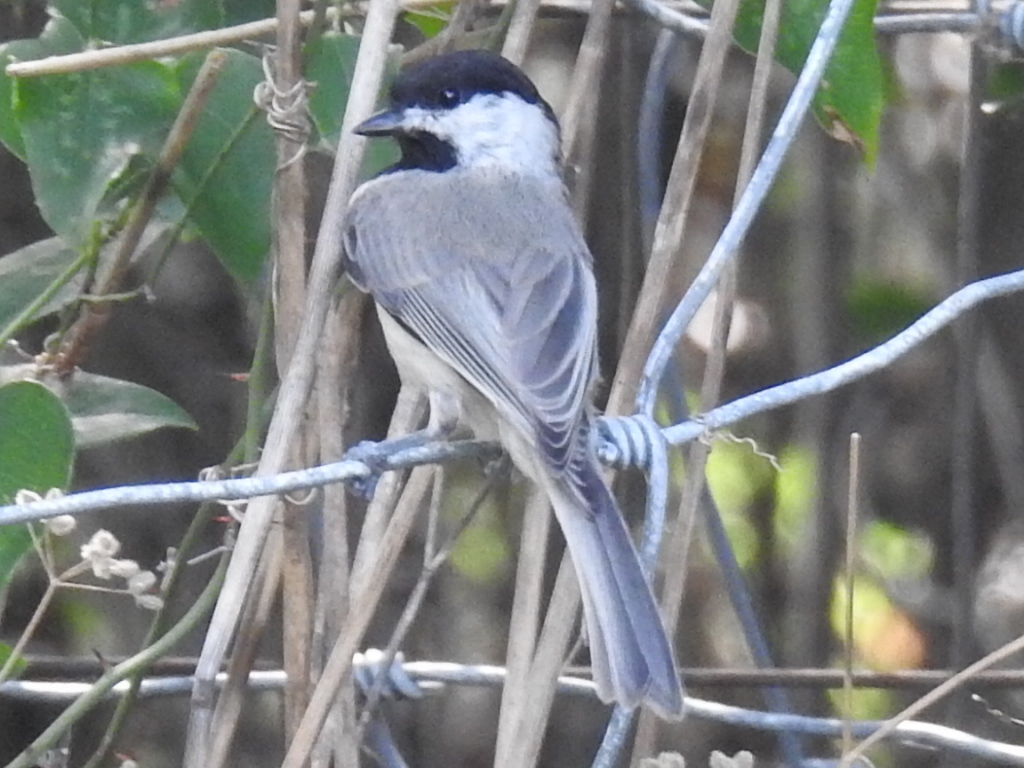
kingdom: Animalia
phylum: Chordata
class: Aves
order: Passeriformes
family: Paridae
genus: Poecile
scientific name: Poecile carolinensis
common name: Carolina chickadee
